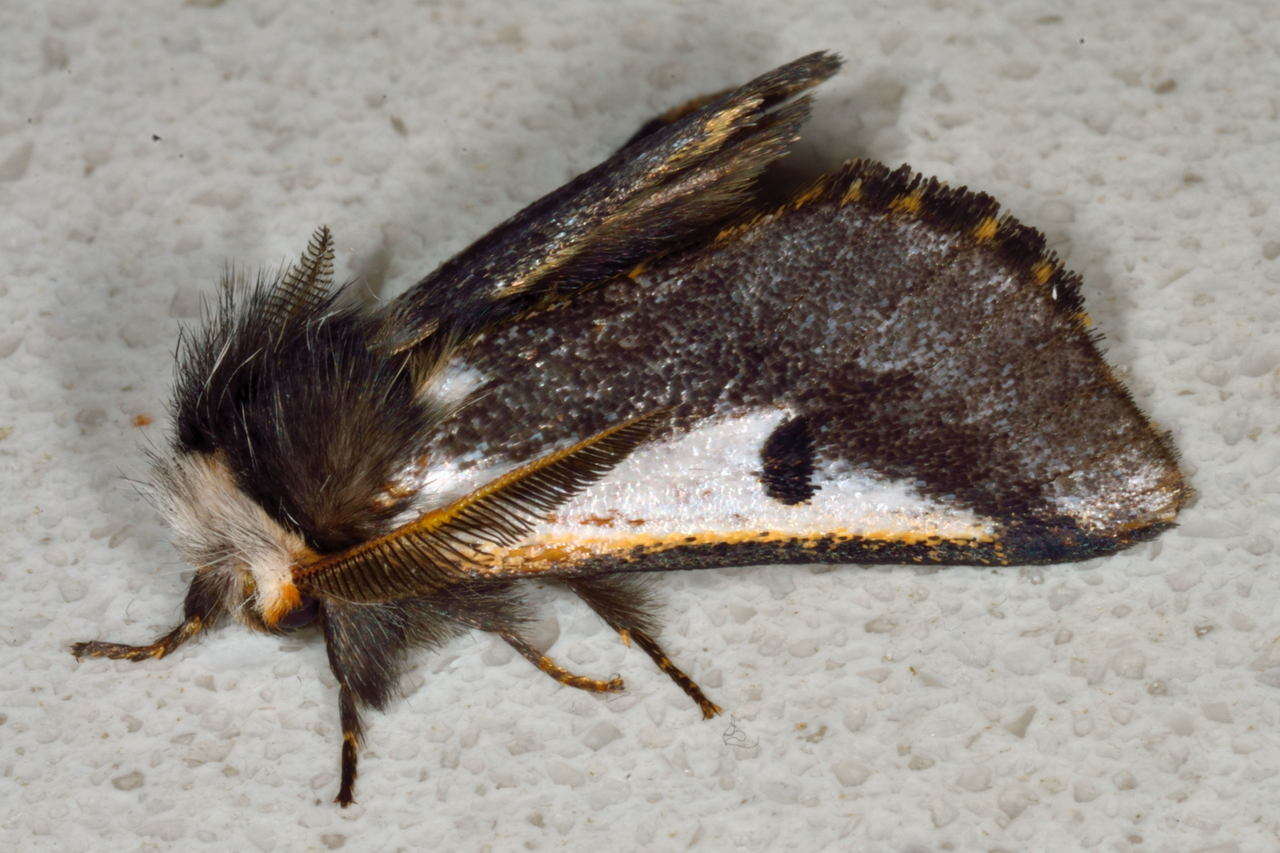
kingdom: Animalia
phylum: Arthropoda
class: Insecta
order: Lepidoptera
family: Notodontidae
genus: Epicoma
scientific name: Epicoma
